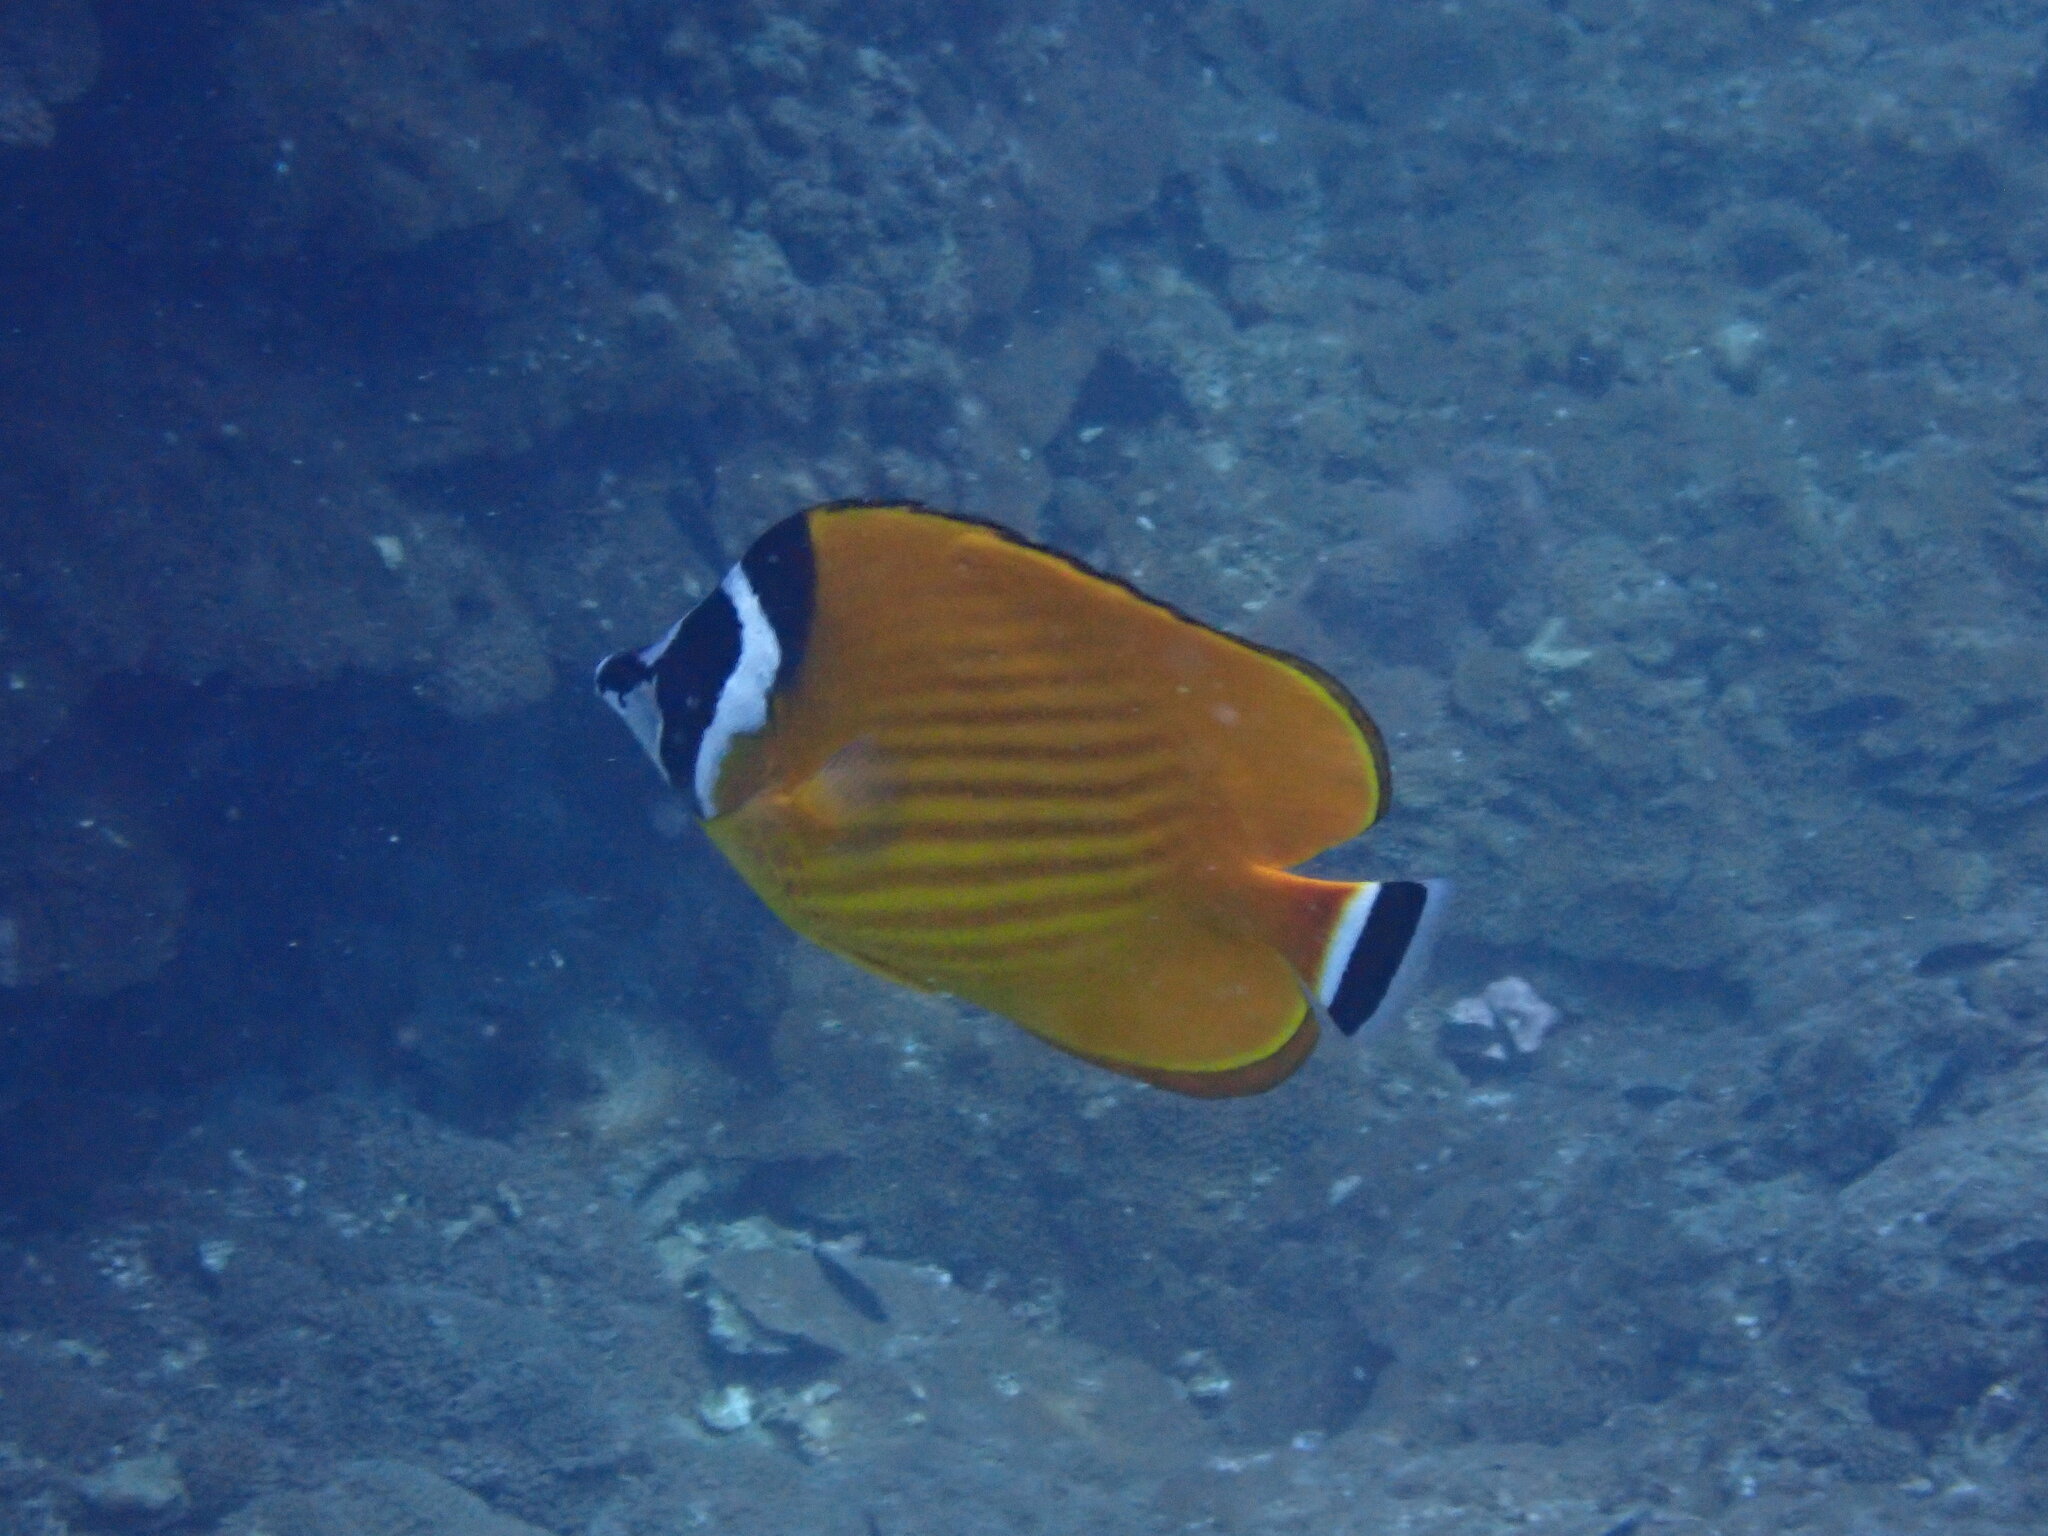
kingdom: Animalia
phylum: Chordata
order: Perciformes
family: Chaetodontidae
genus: Chaetodon
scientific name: Chaetodon wiebeli
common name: Butterflyfish
